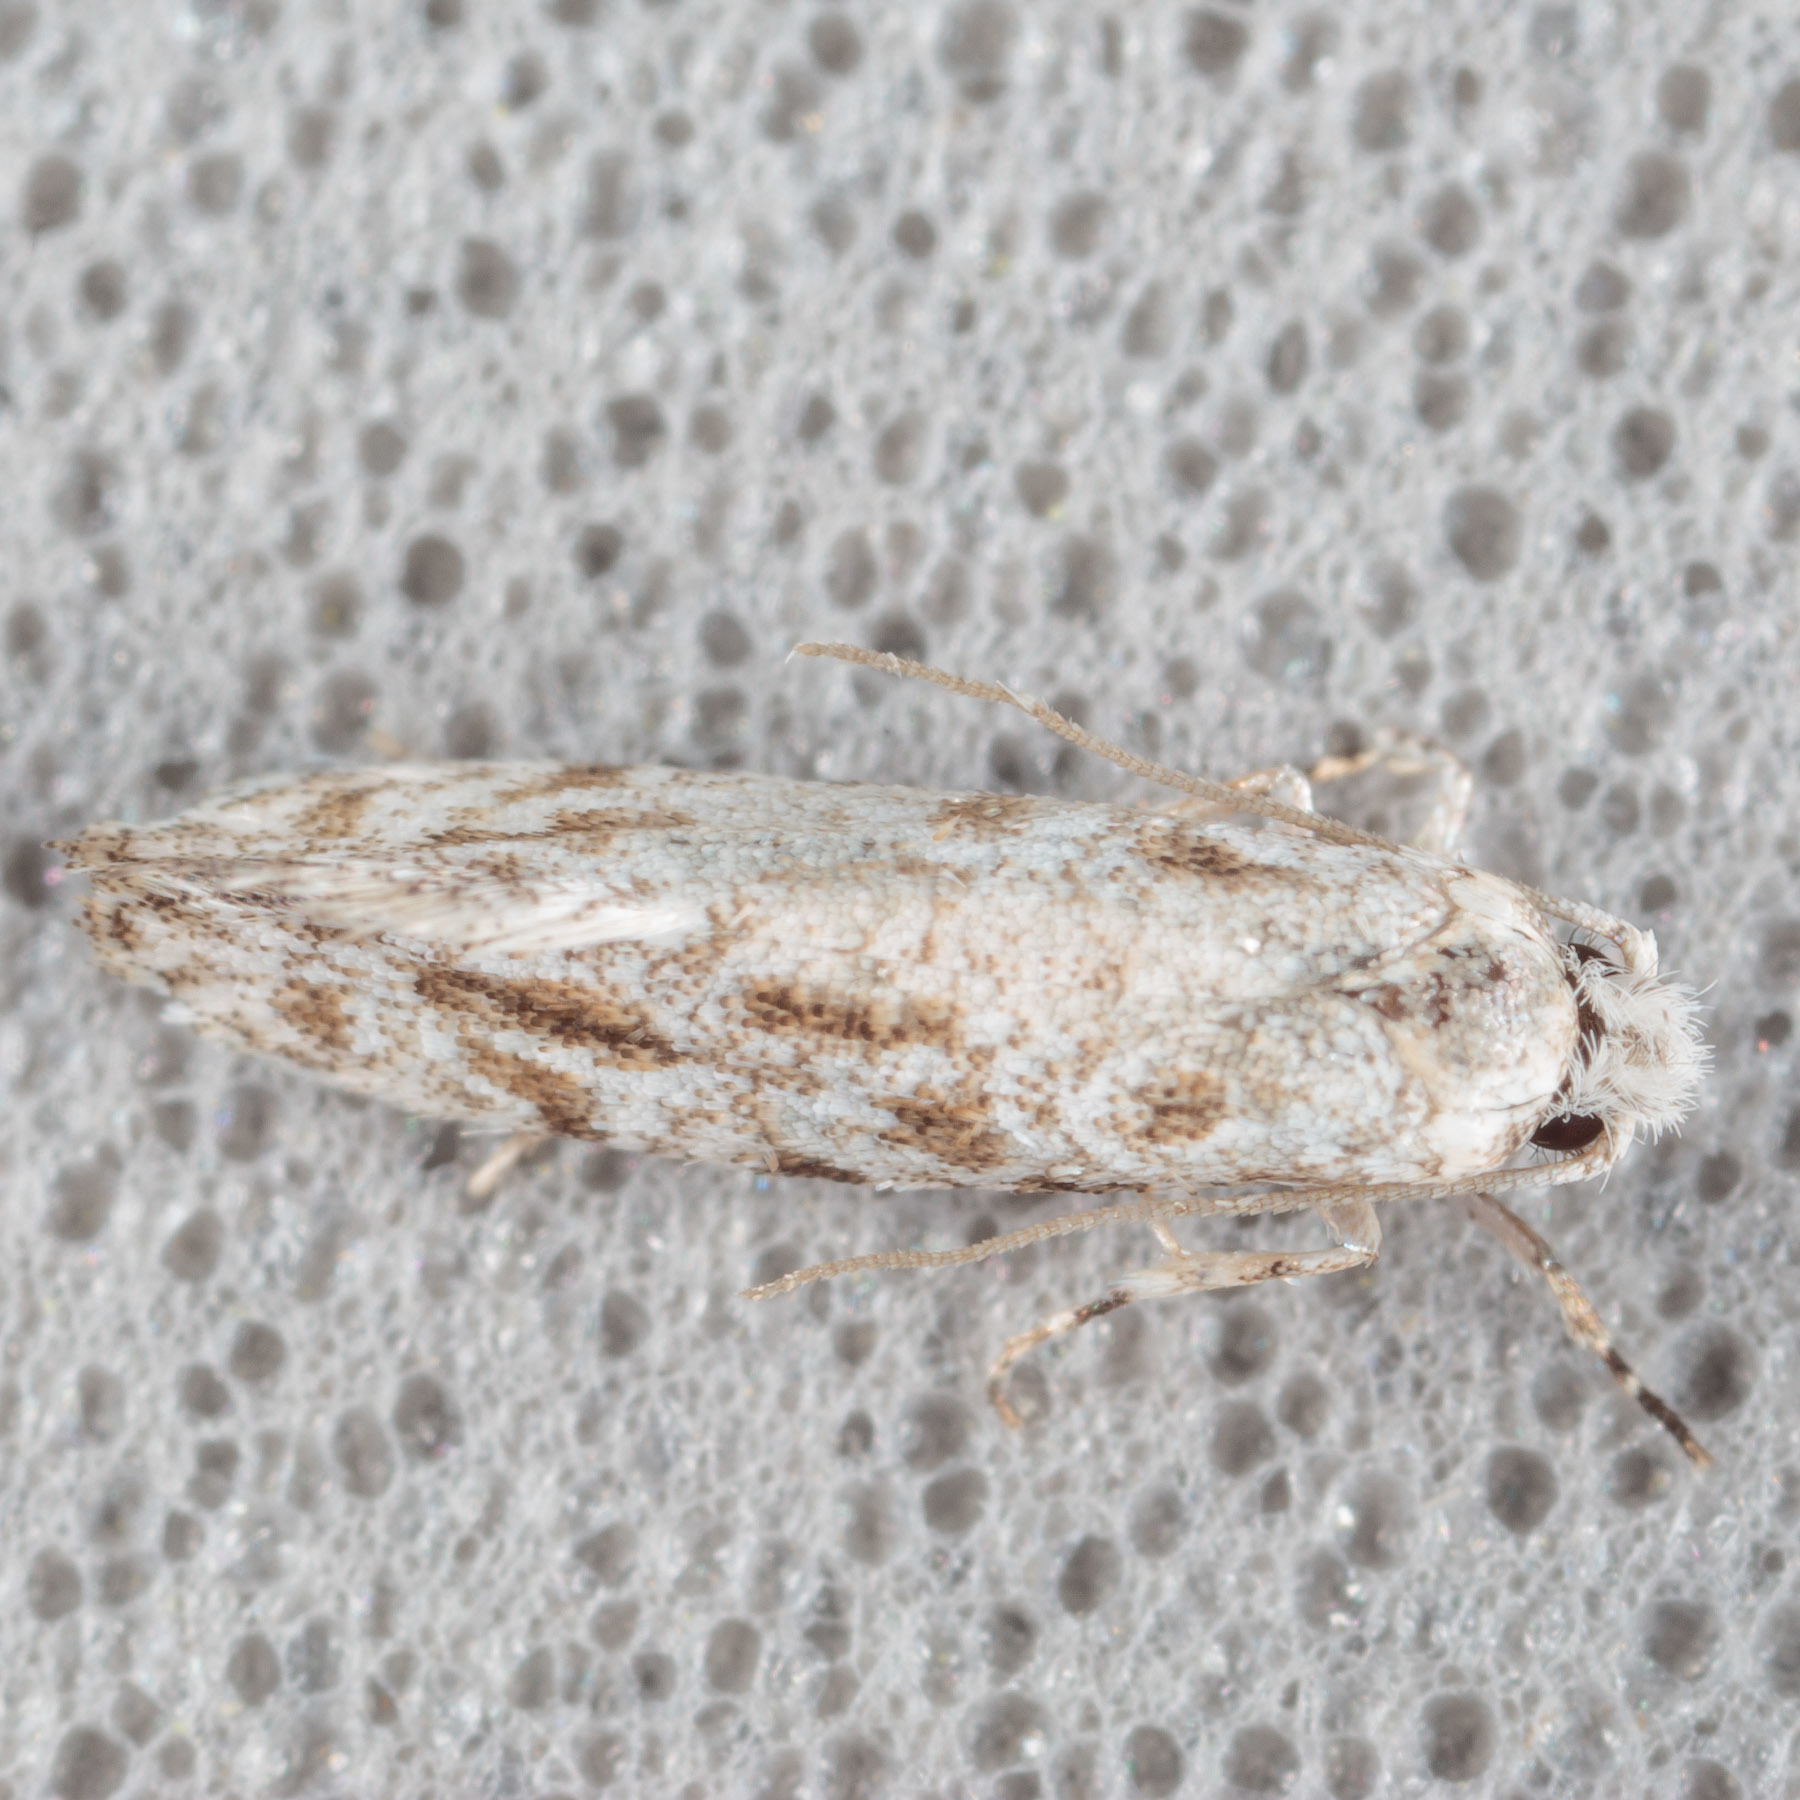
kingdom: Animalia
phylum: Arthropoda
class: Insecta
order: Lepidoptera
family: Meessiidae
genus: Diachorisia
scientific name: Diachorisia velatella
